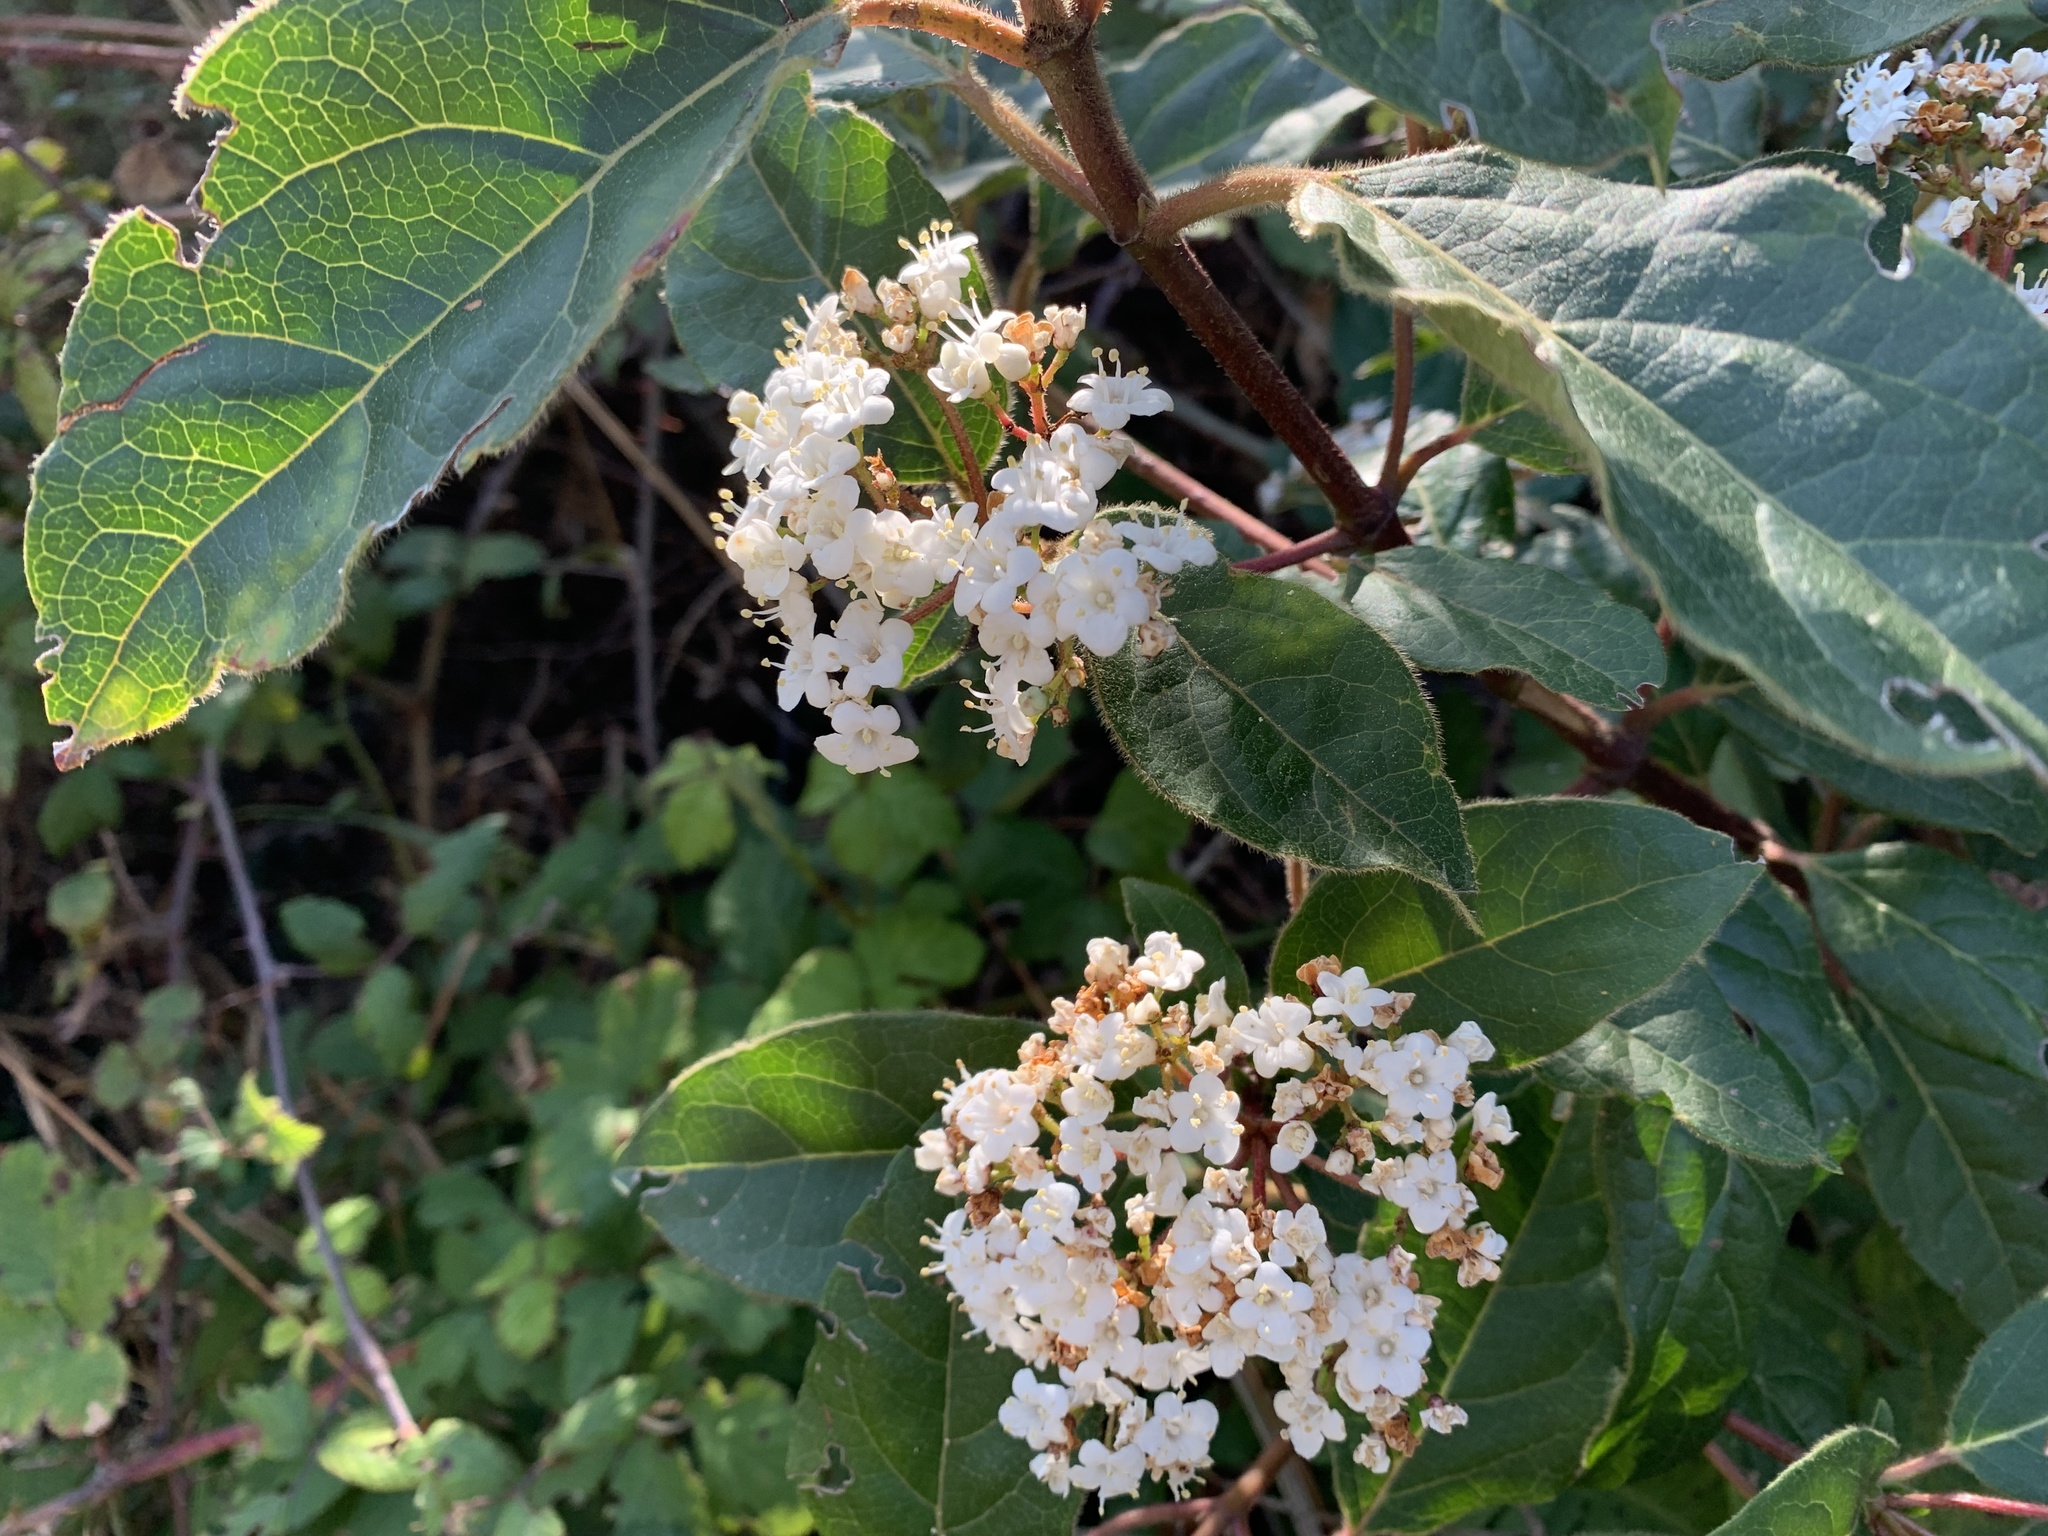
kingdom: Plantae
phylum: Tracheophyta
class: Magnoliopsida
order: Dipsacales
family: Viburnaceae
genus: Viburnum
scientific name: Viburnum tinus
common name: Laurustinus
